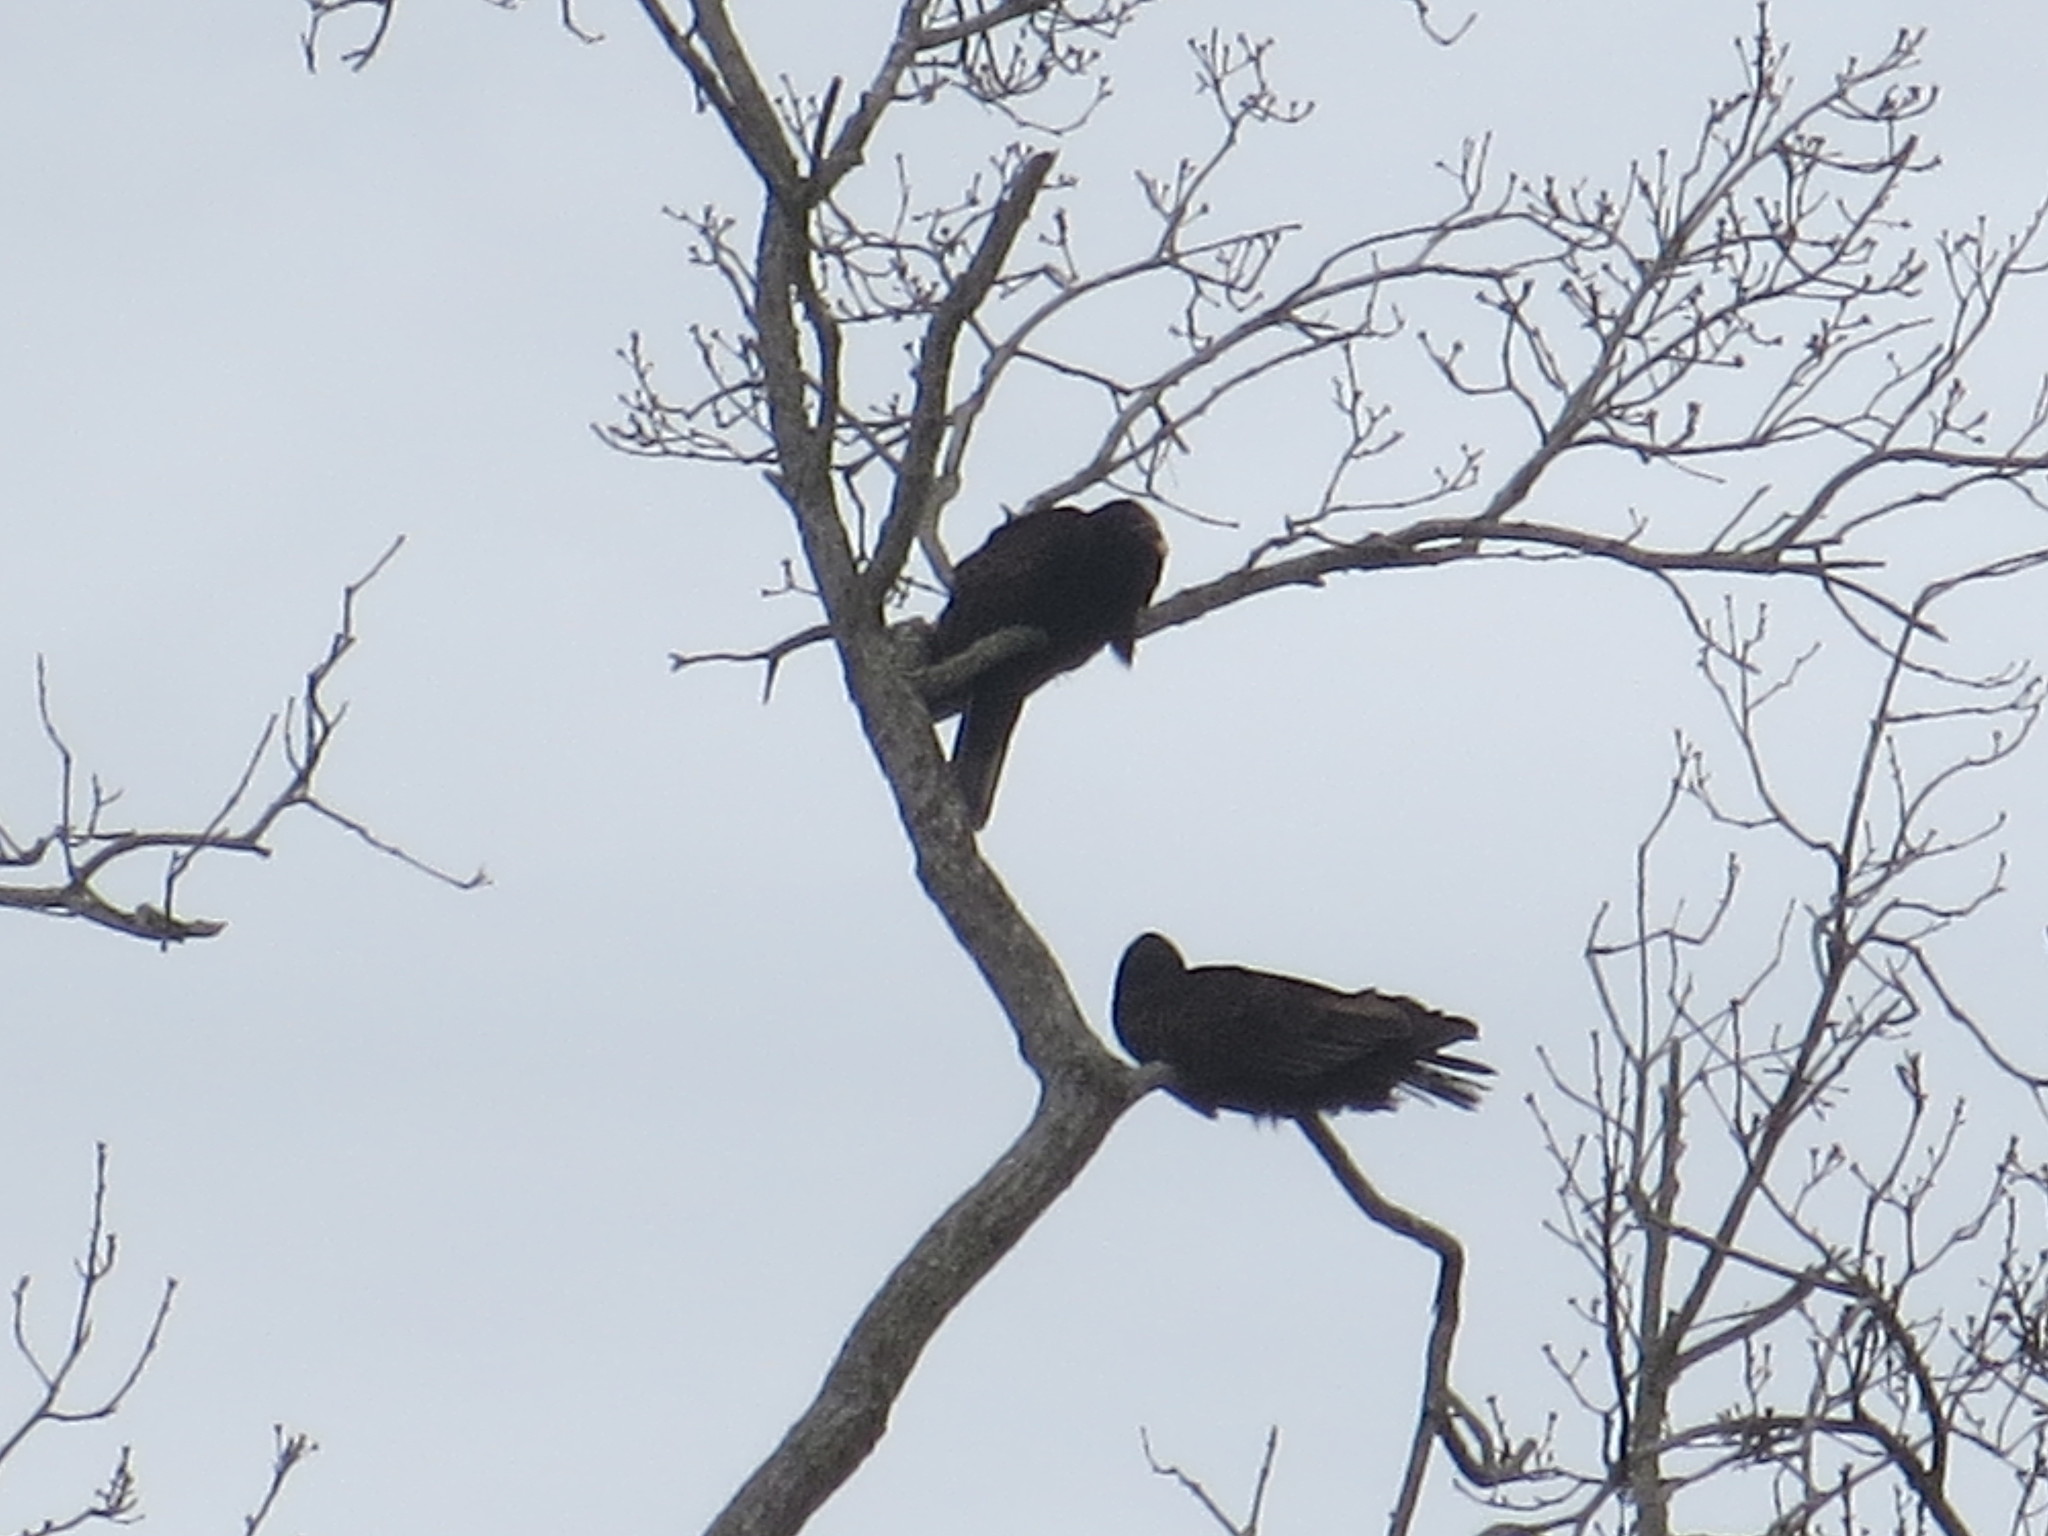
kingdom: Animalia
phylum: Chordata
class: Aves
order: Accipitriformes
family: Cathartidae
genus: Cathartes
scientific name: Cathartes aura
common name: Turkey vulture
